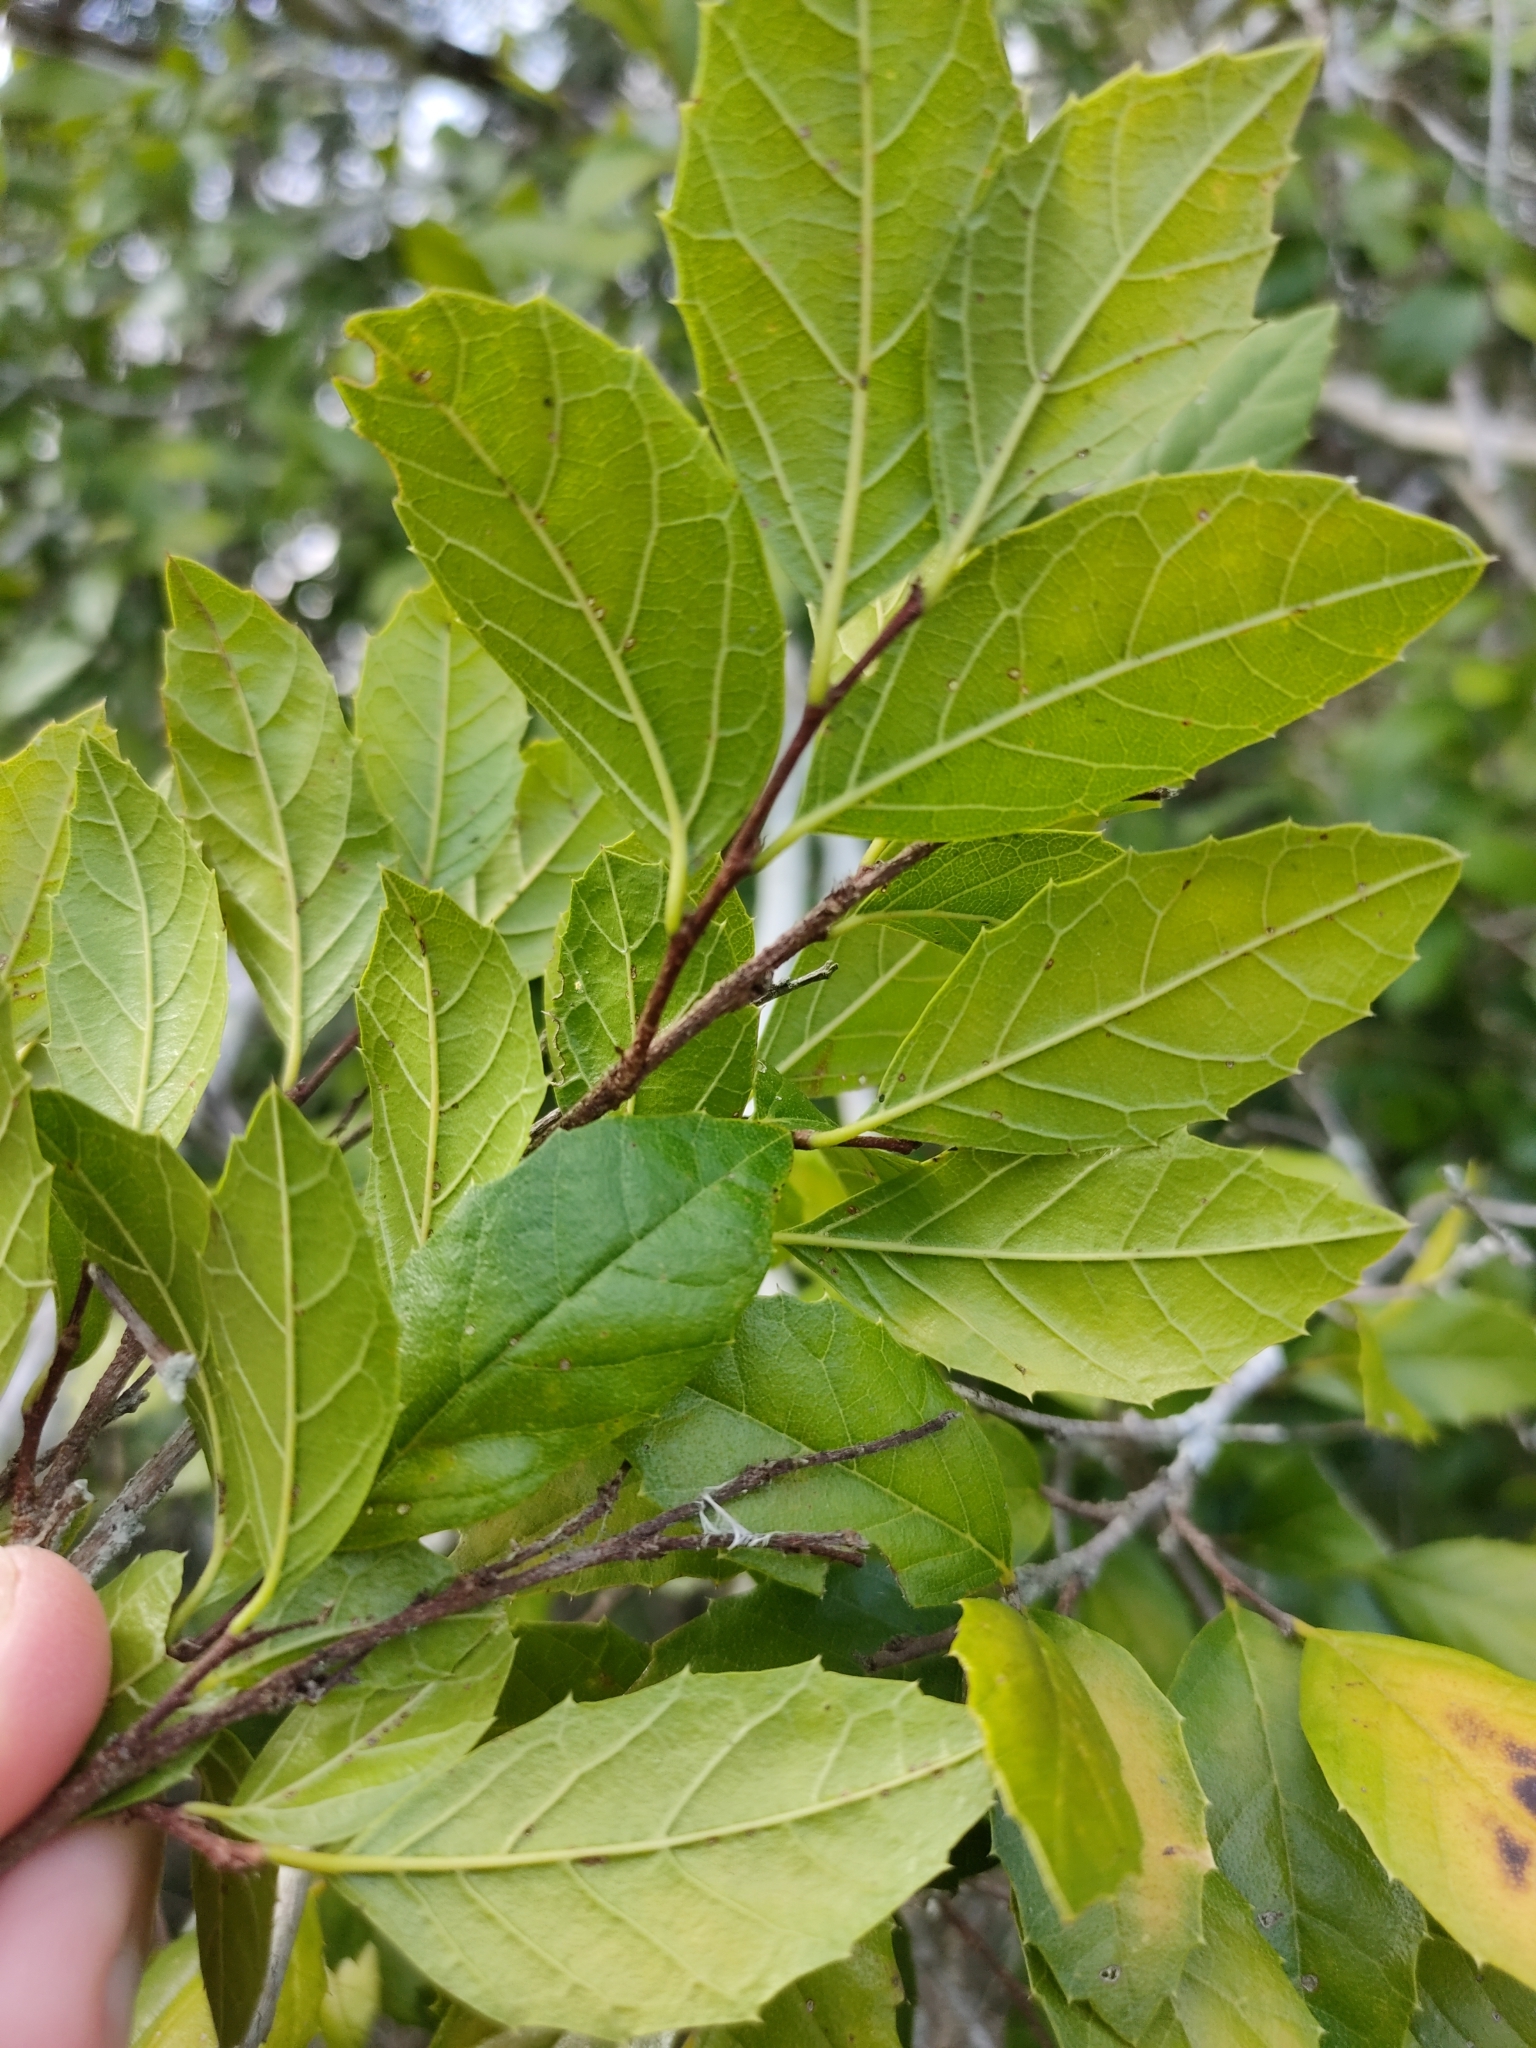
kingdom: Plantae
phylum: Tracheophyta
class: Magnoliopsida
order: Rosales
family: Cannabaceae
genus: Aphananthe
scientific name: Aphananthe philippinensis
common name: Wild holly
